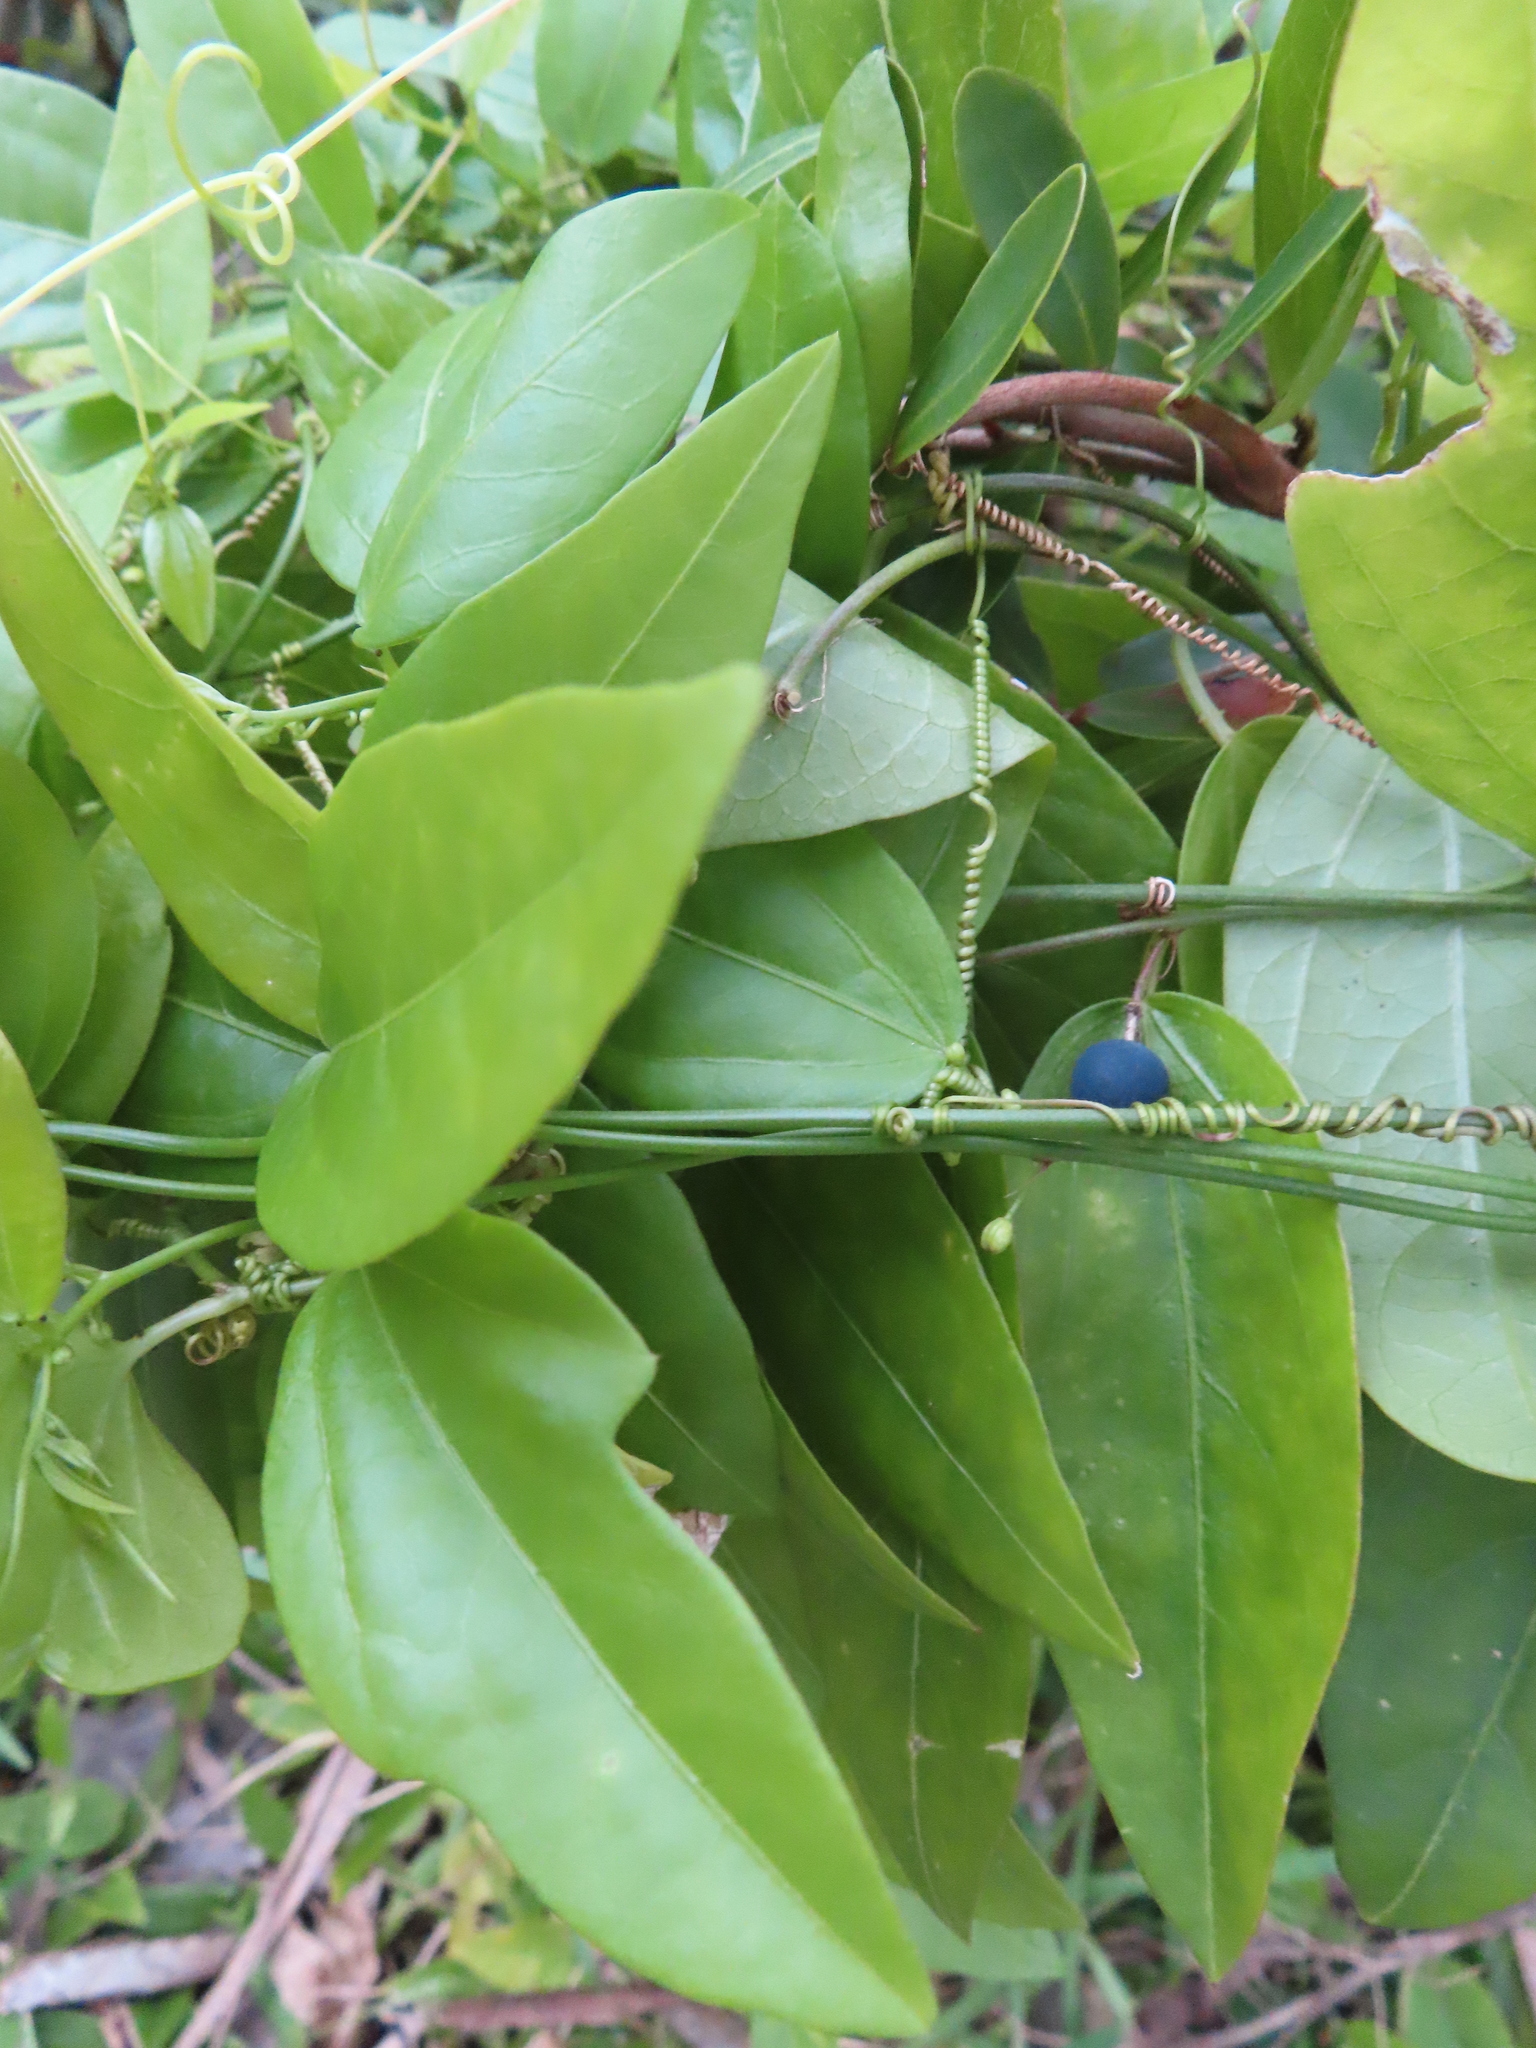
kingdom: Plantae
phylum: Tracheophyta
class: Magnoliopsida
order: Malpighiales
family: Passifloraceae
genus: Passiflora
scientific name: Passiflora pallida
